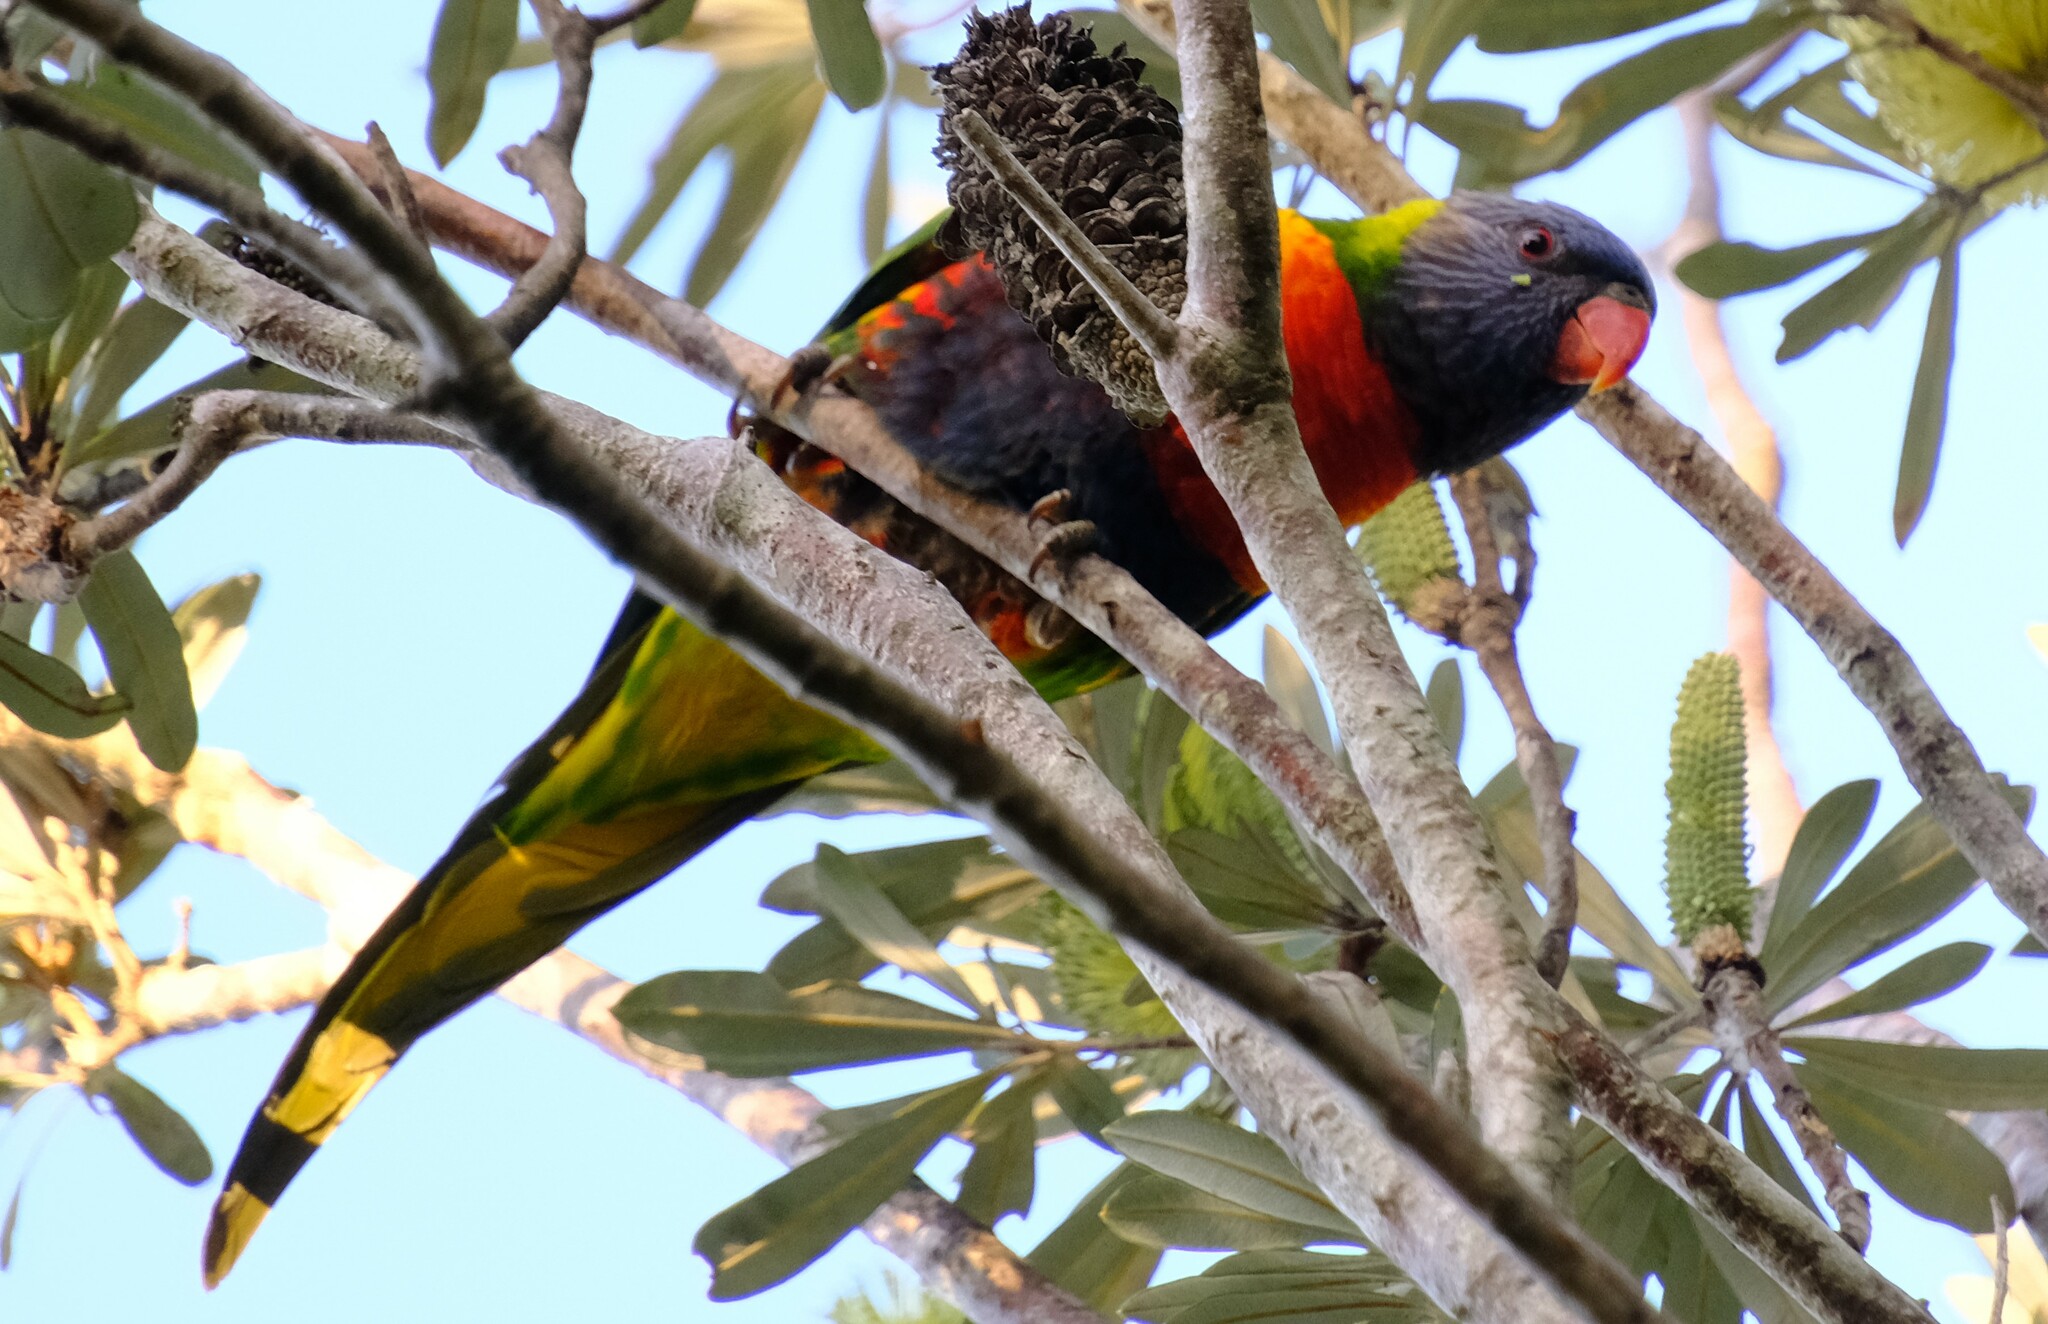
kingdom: Animalia
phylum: Chordata
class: Aves
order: Psittaciformes
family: Psittacidae
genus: Trichoglossus
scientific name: Trichoglossus haematodus
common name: Coconut lorikeet
